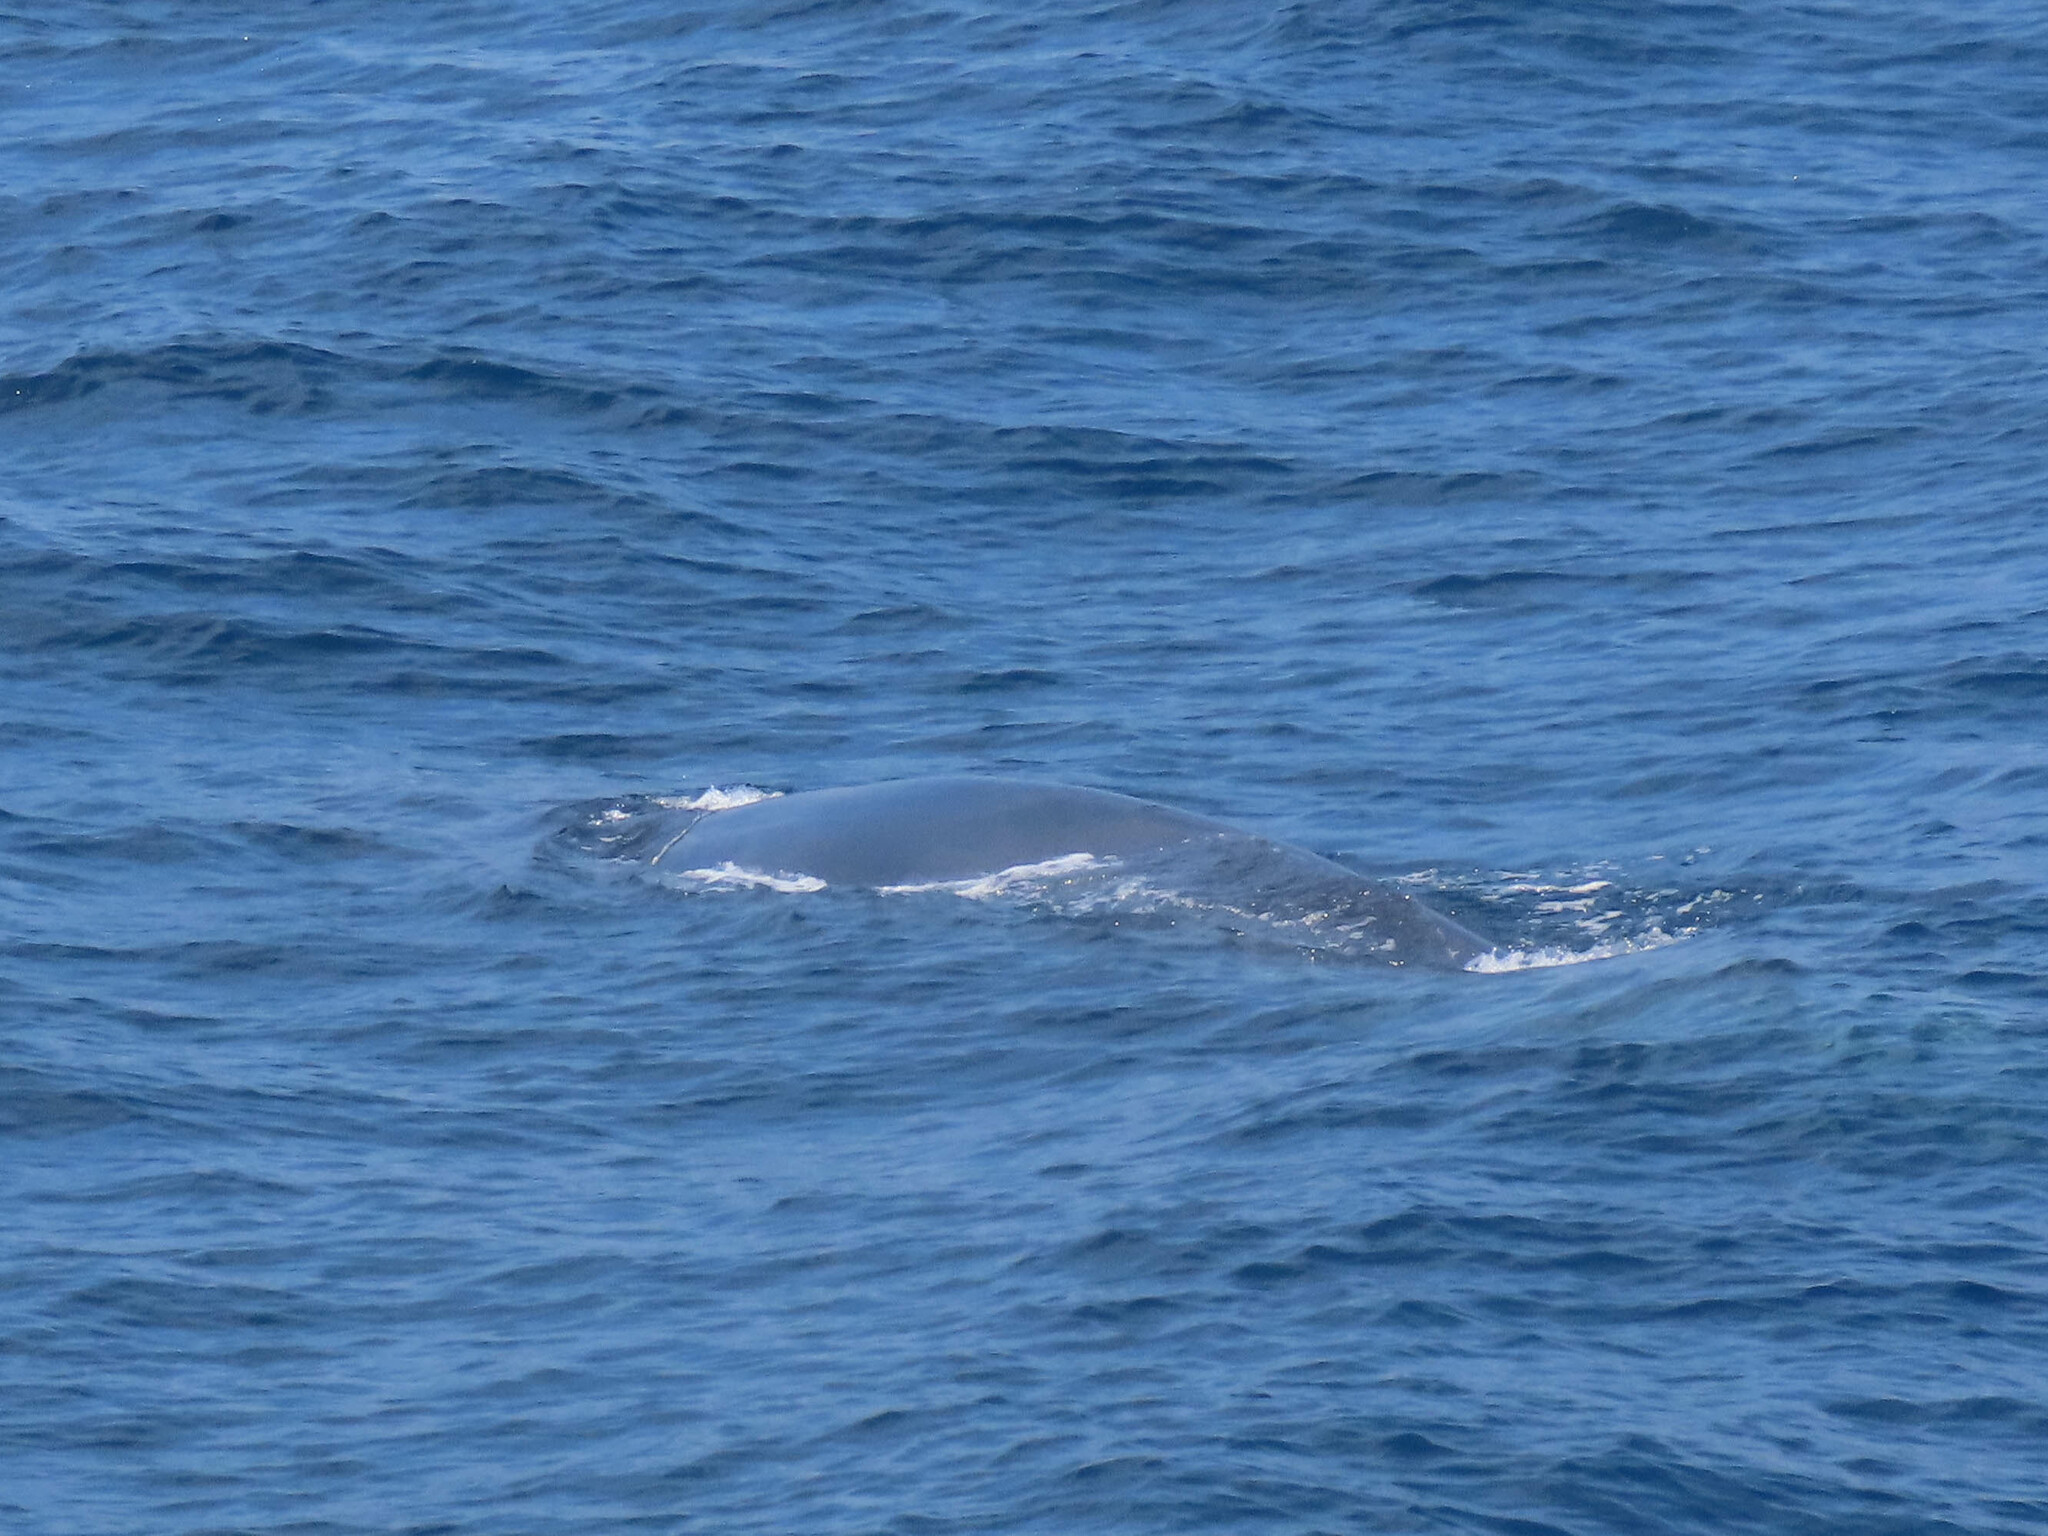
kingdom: Animalia
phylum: Chordata
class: Mammalia
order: Cetacea
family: Balaenopteridae
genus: Balaenoptera
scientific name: Balaenoptera physalus
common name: Fin whale
